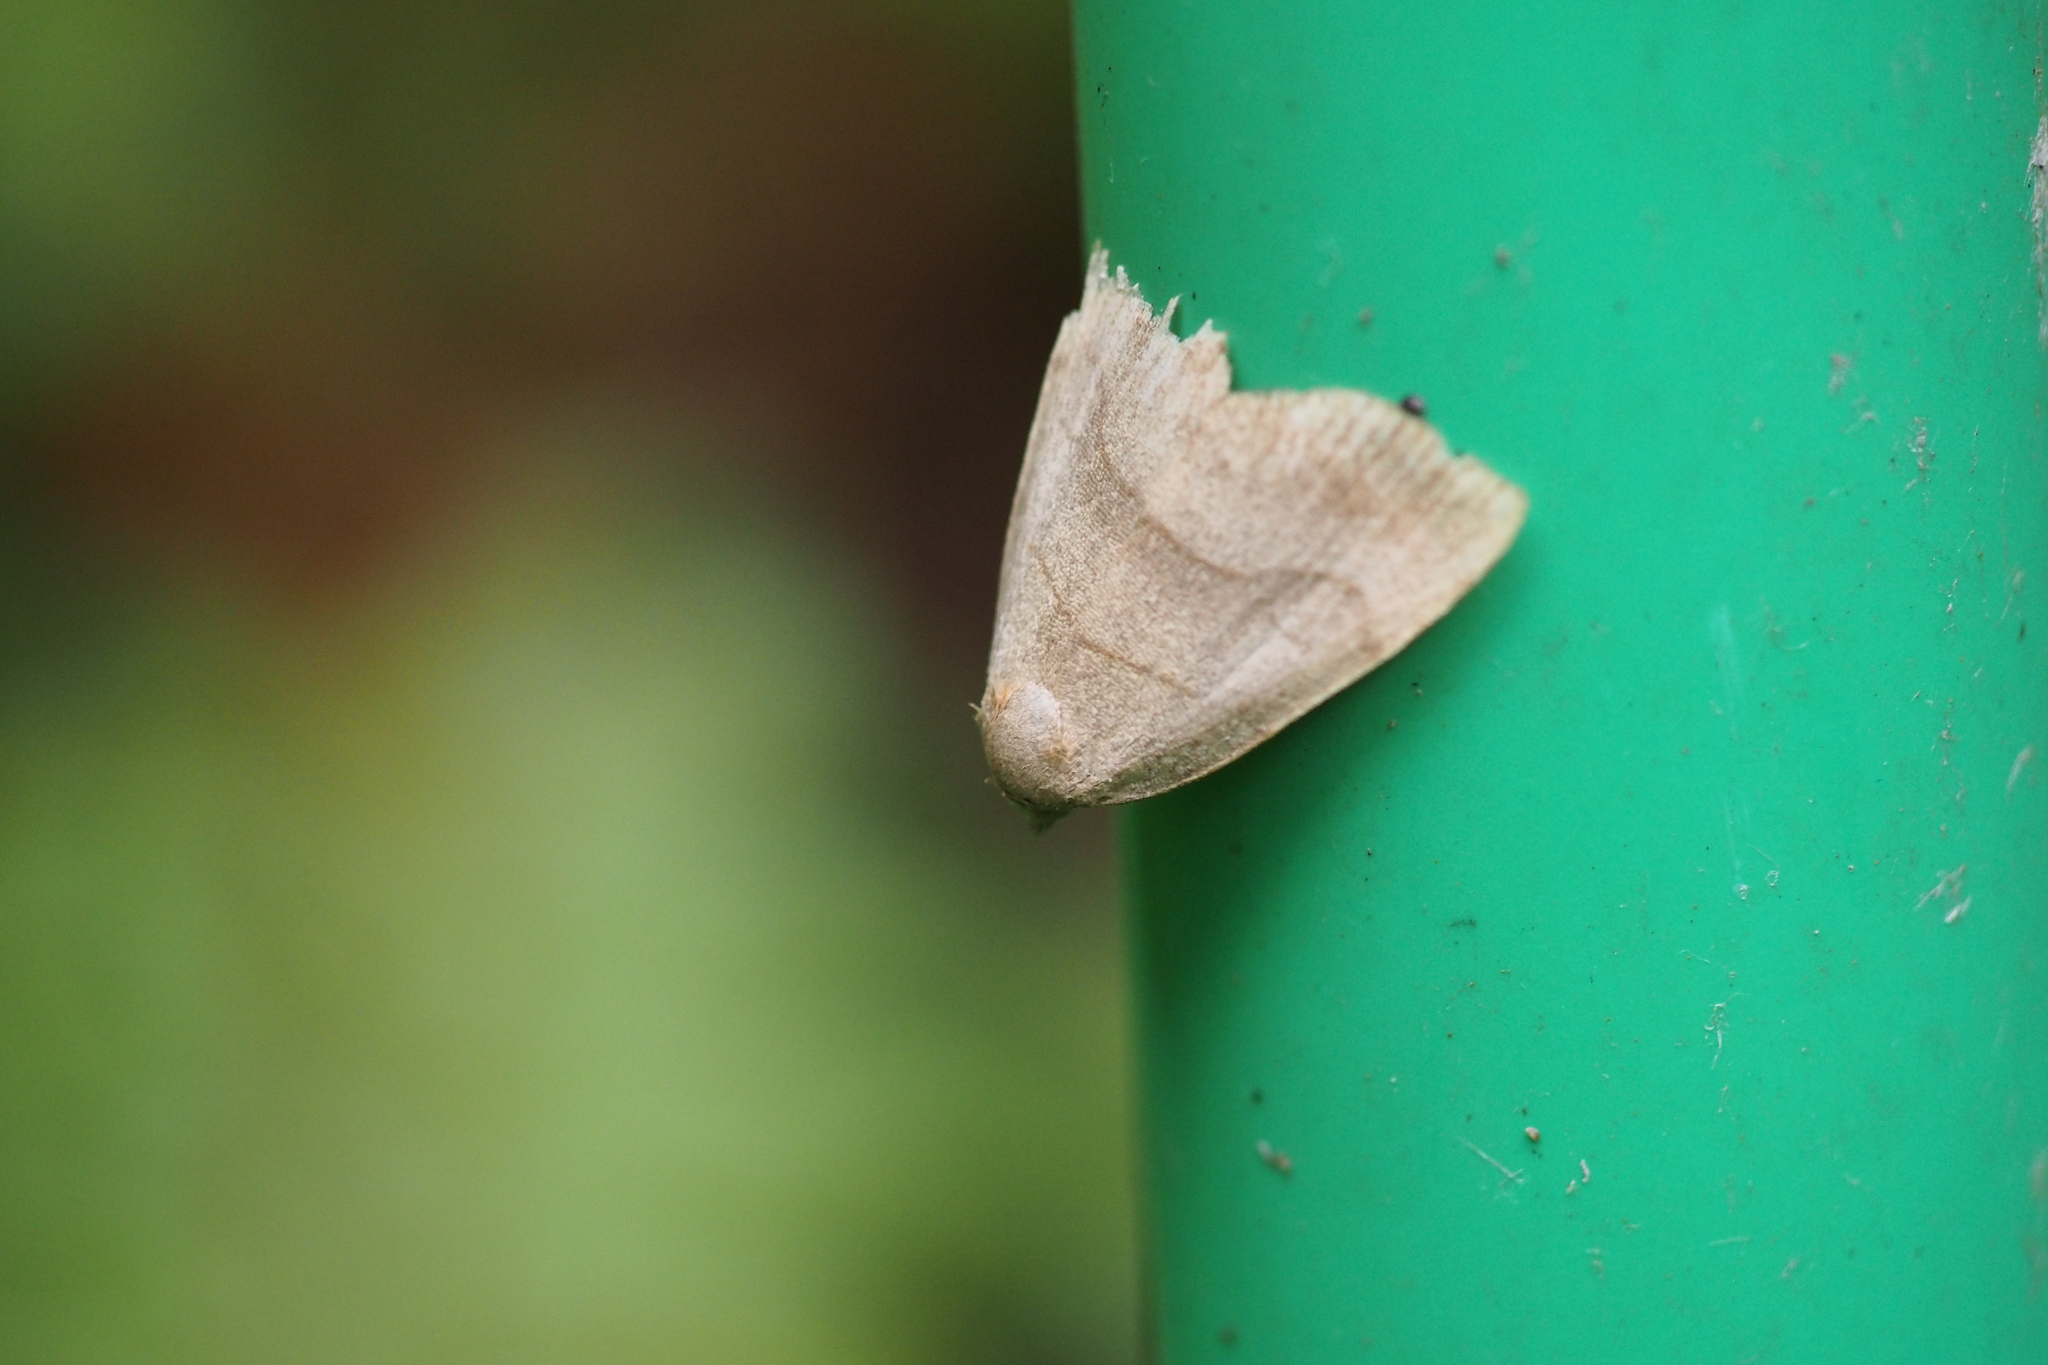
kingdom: Animalia
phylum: Arthropoda
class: Insecta
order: Lepidoptera
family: Erebidae
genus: Leiostola
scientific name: Leiostola mollis
